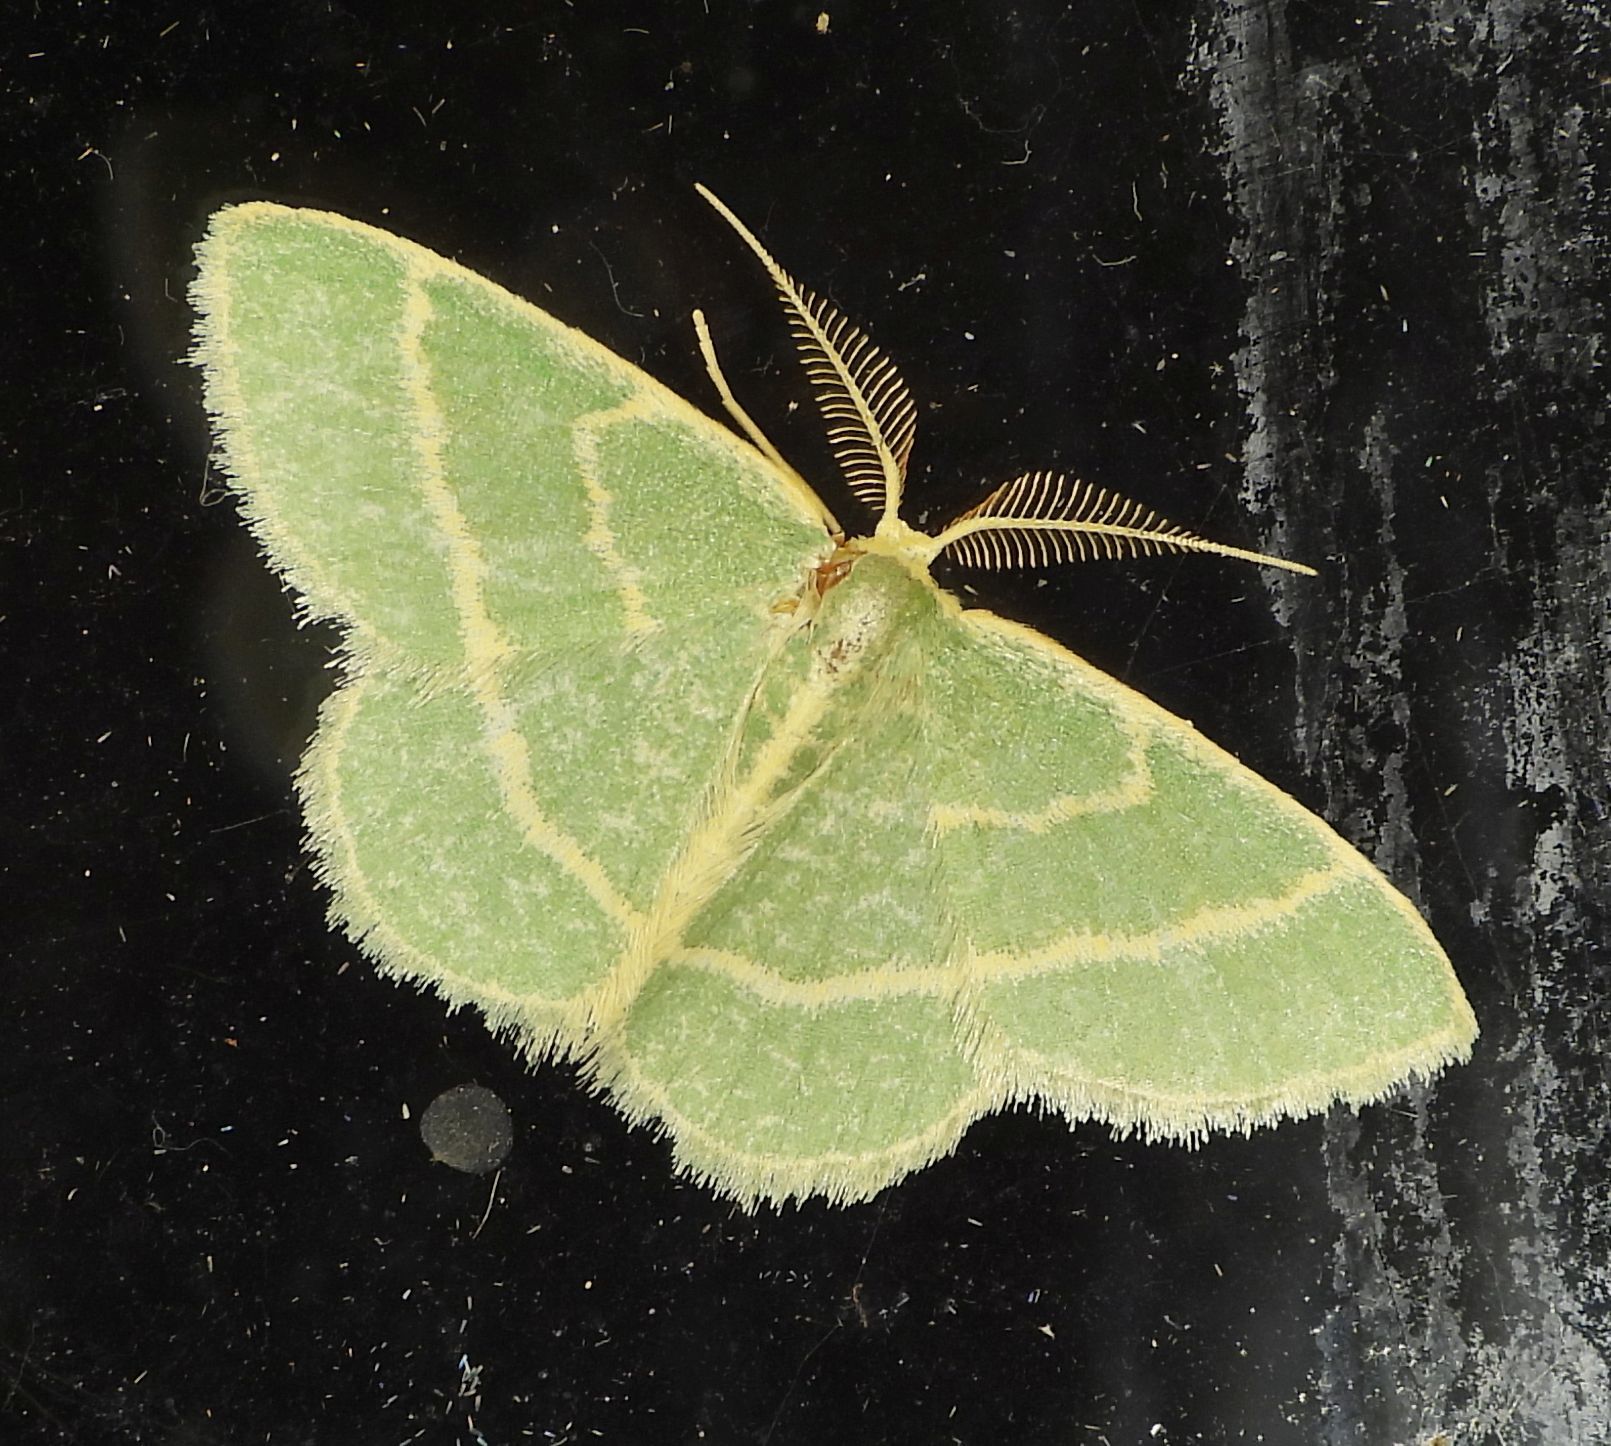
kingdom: Animalia
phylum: Arthropoda
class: Insecta
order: Lepidoptera
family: Geometridae
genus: Chlorochlamys
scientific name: Chlorochlamys chloroleucaria
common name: Blackberry looper
